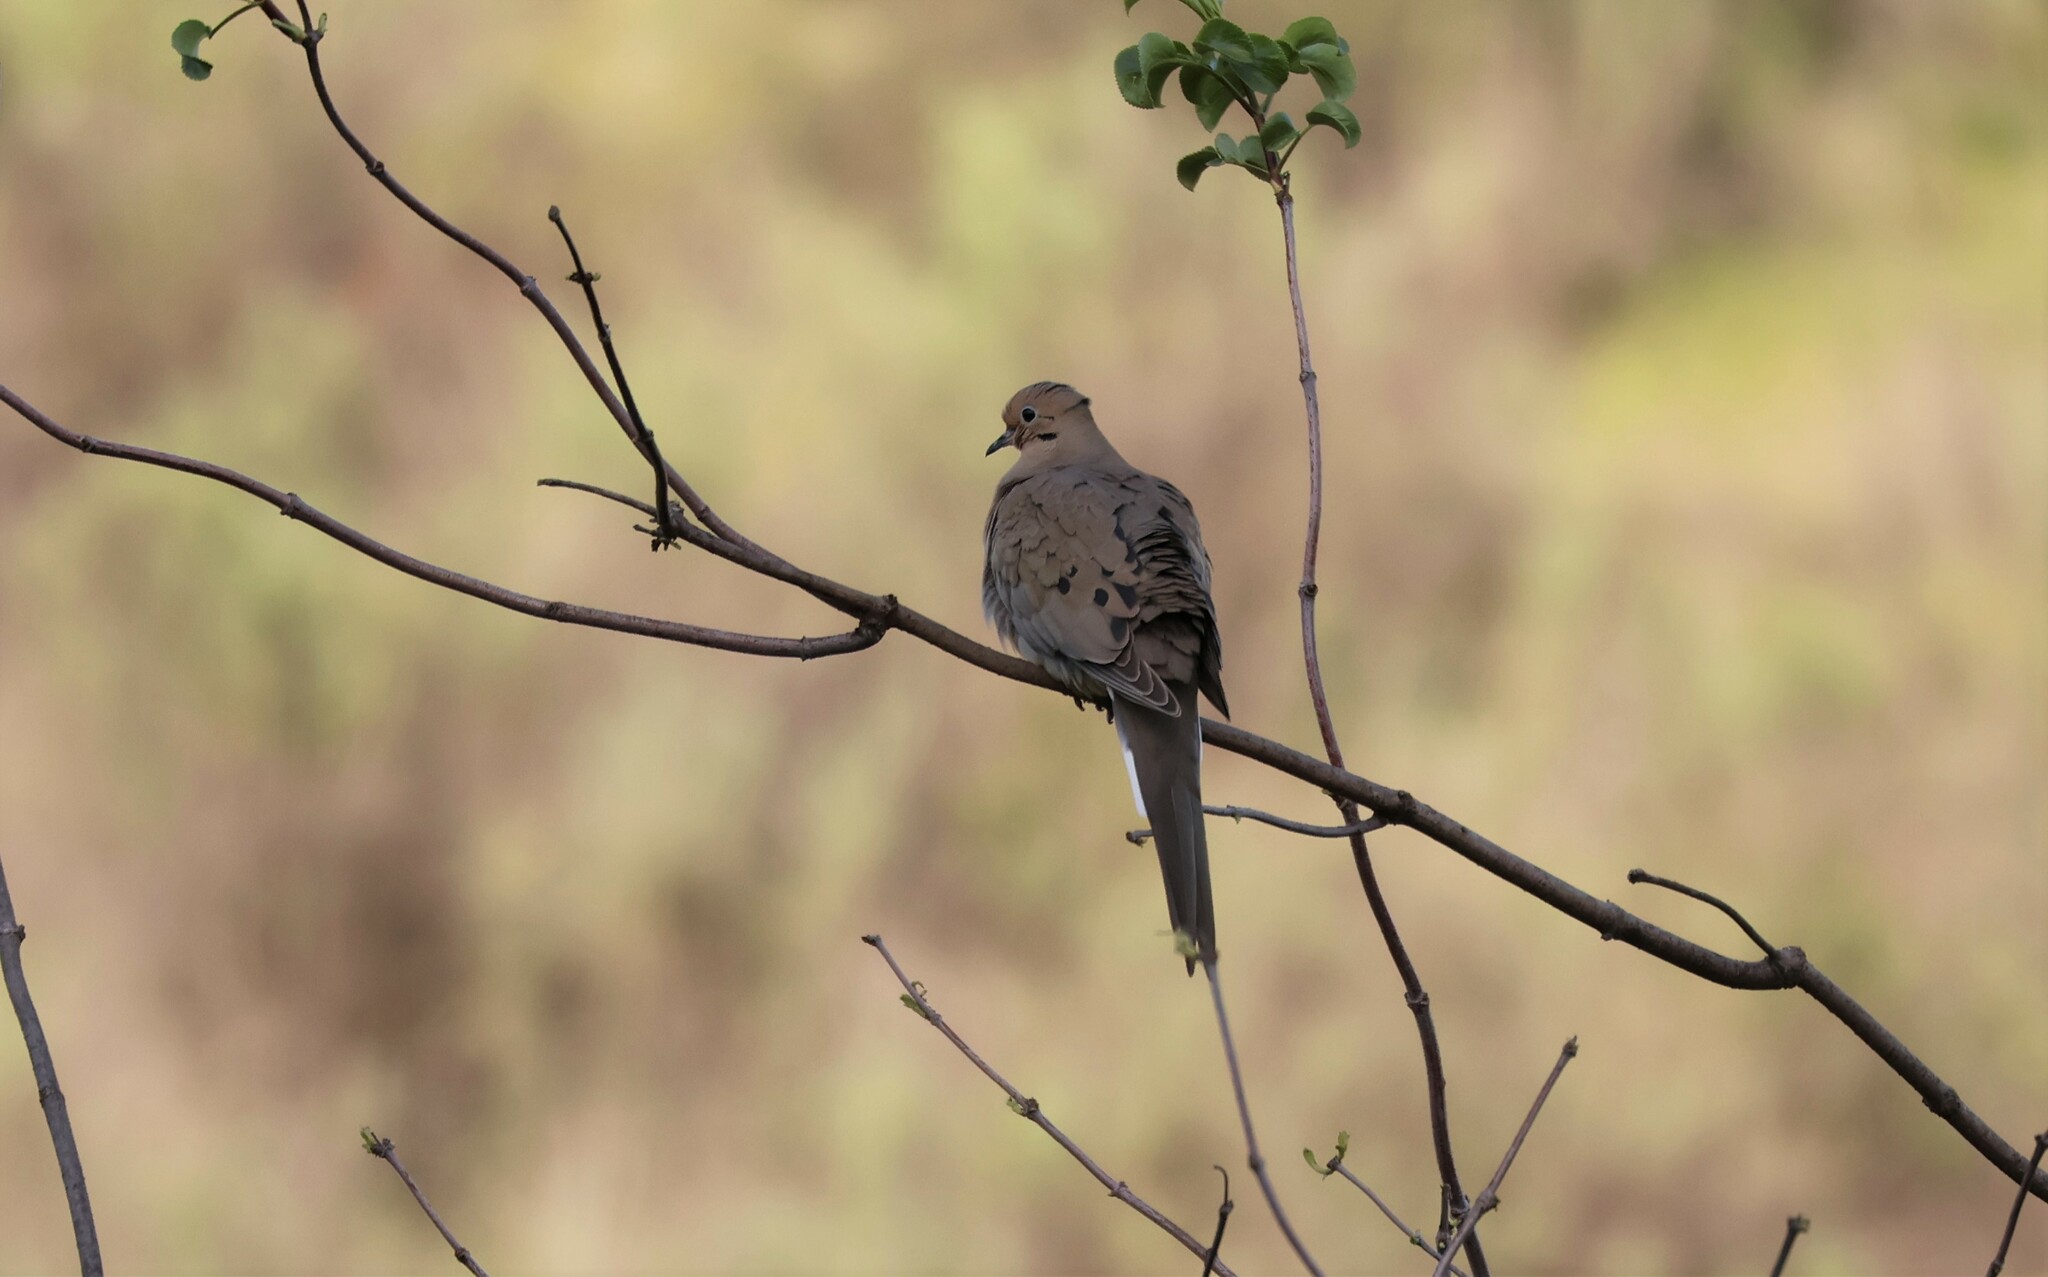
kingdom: Animalia
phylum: Chordata
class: Aves
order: Columbiformes
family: Columbidae
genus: Zenaida
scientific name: Zenaida macroura
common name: Mourning dove
